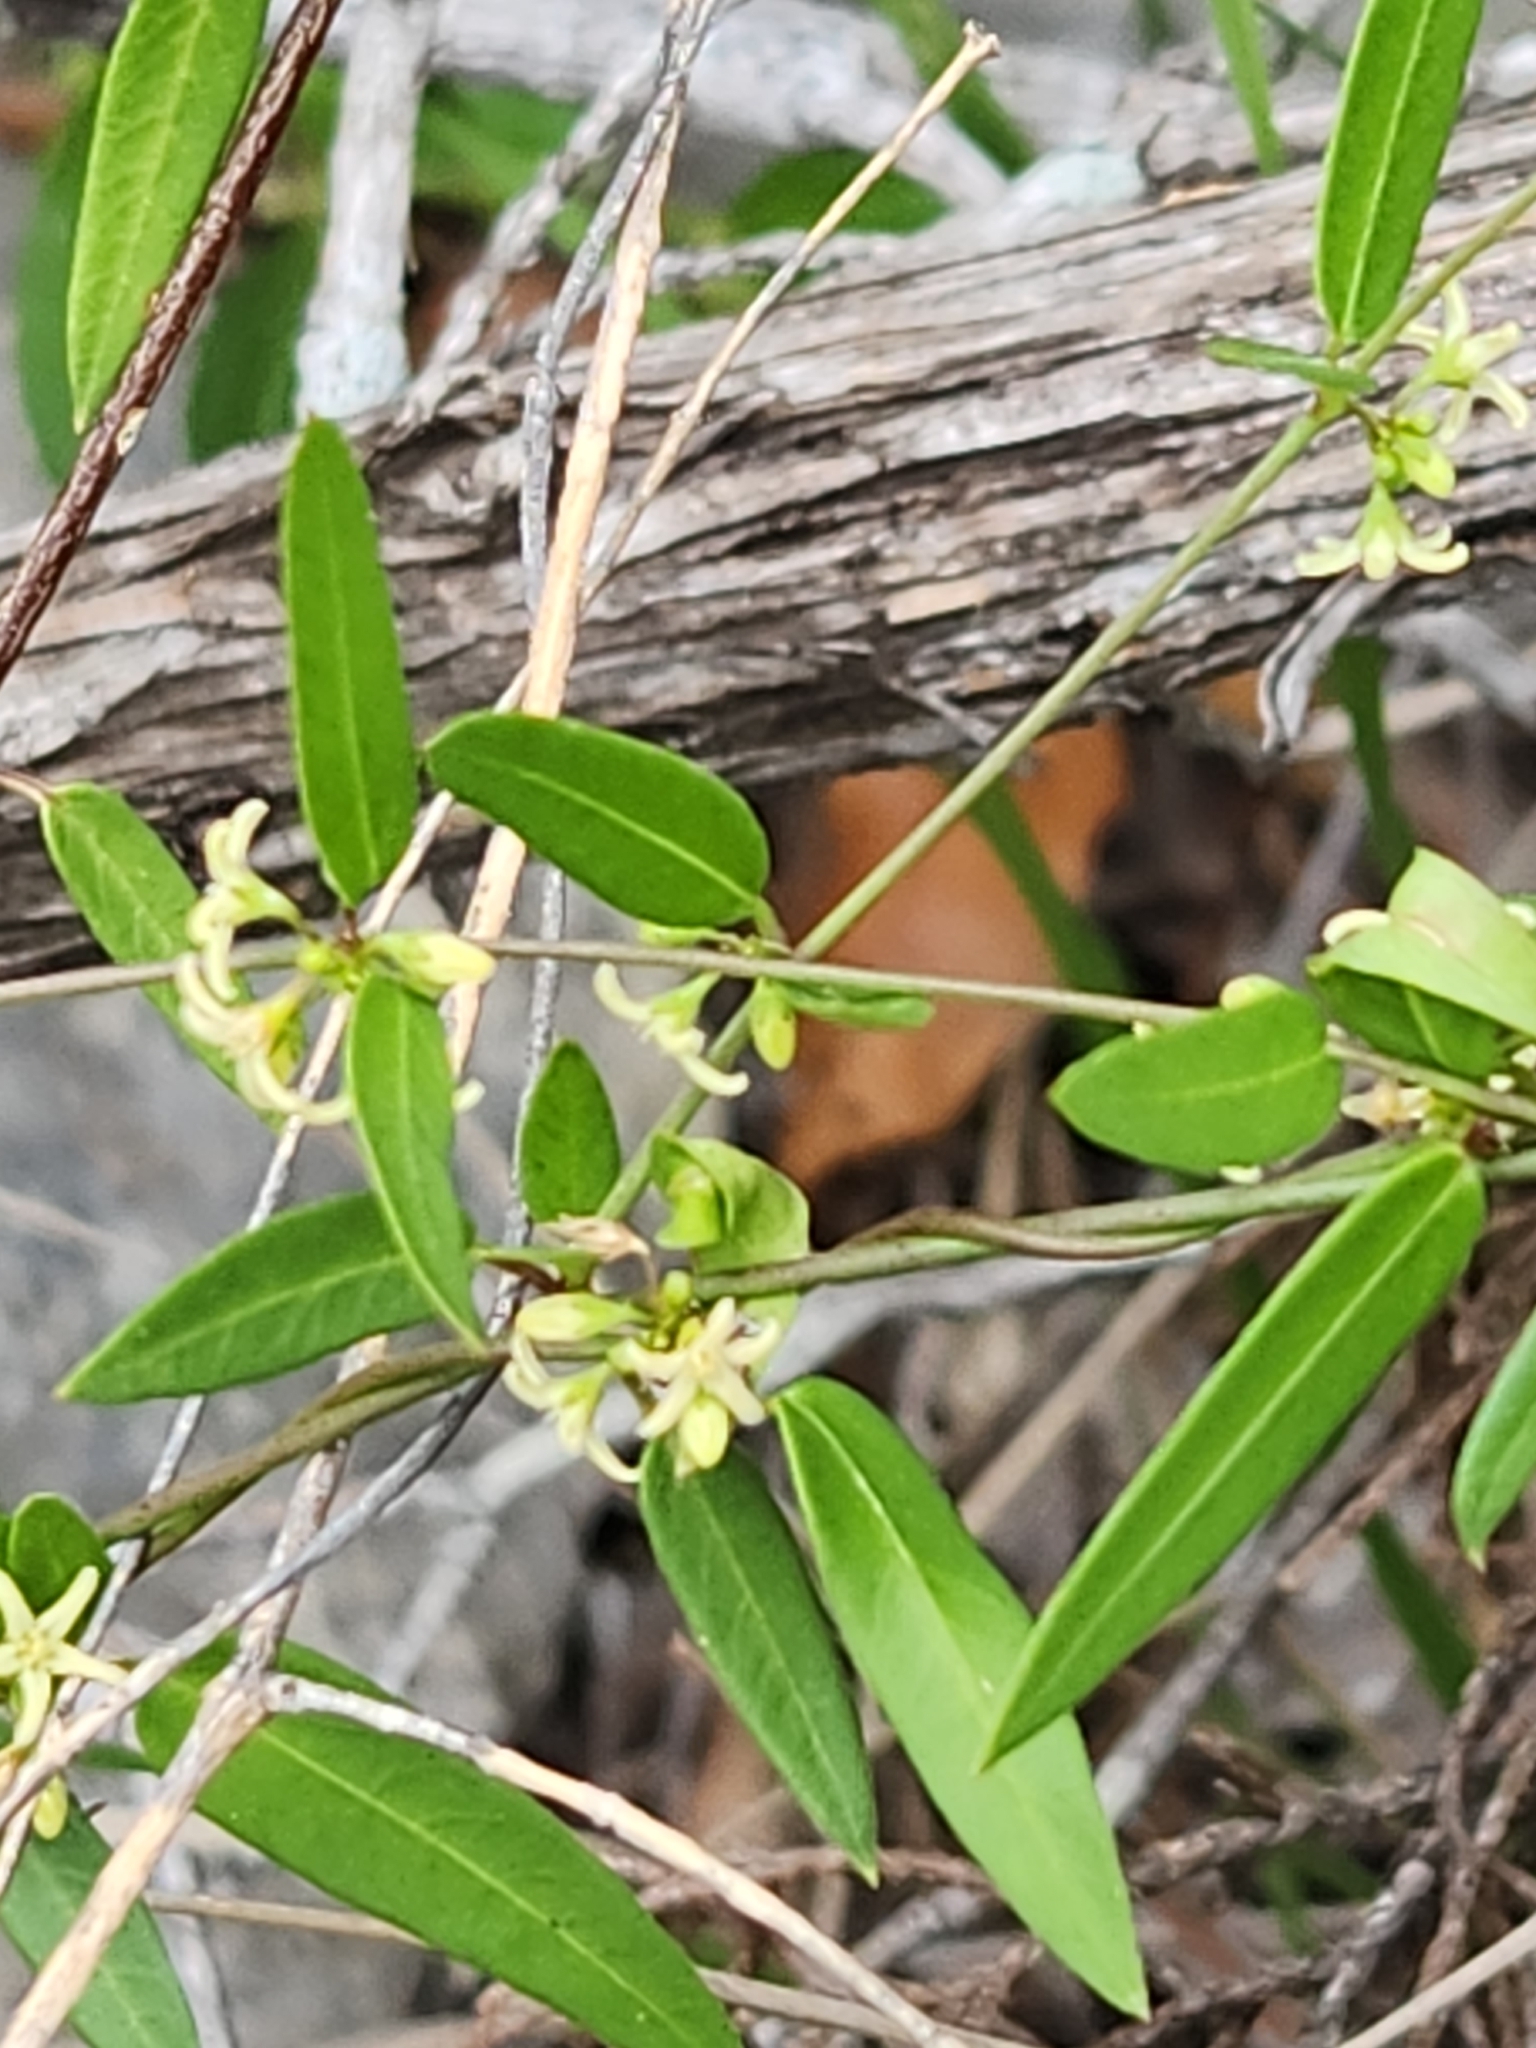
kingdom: Plantae
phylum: Tracheophyta
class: Magnoliopsida
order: Gentianales
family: Apocynaceae
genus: Metastelma
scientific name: Metastelma palmeri
